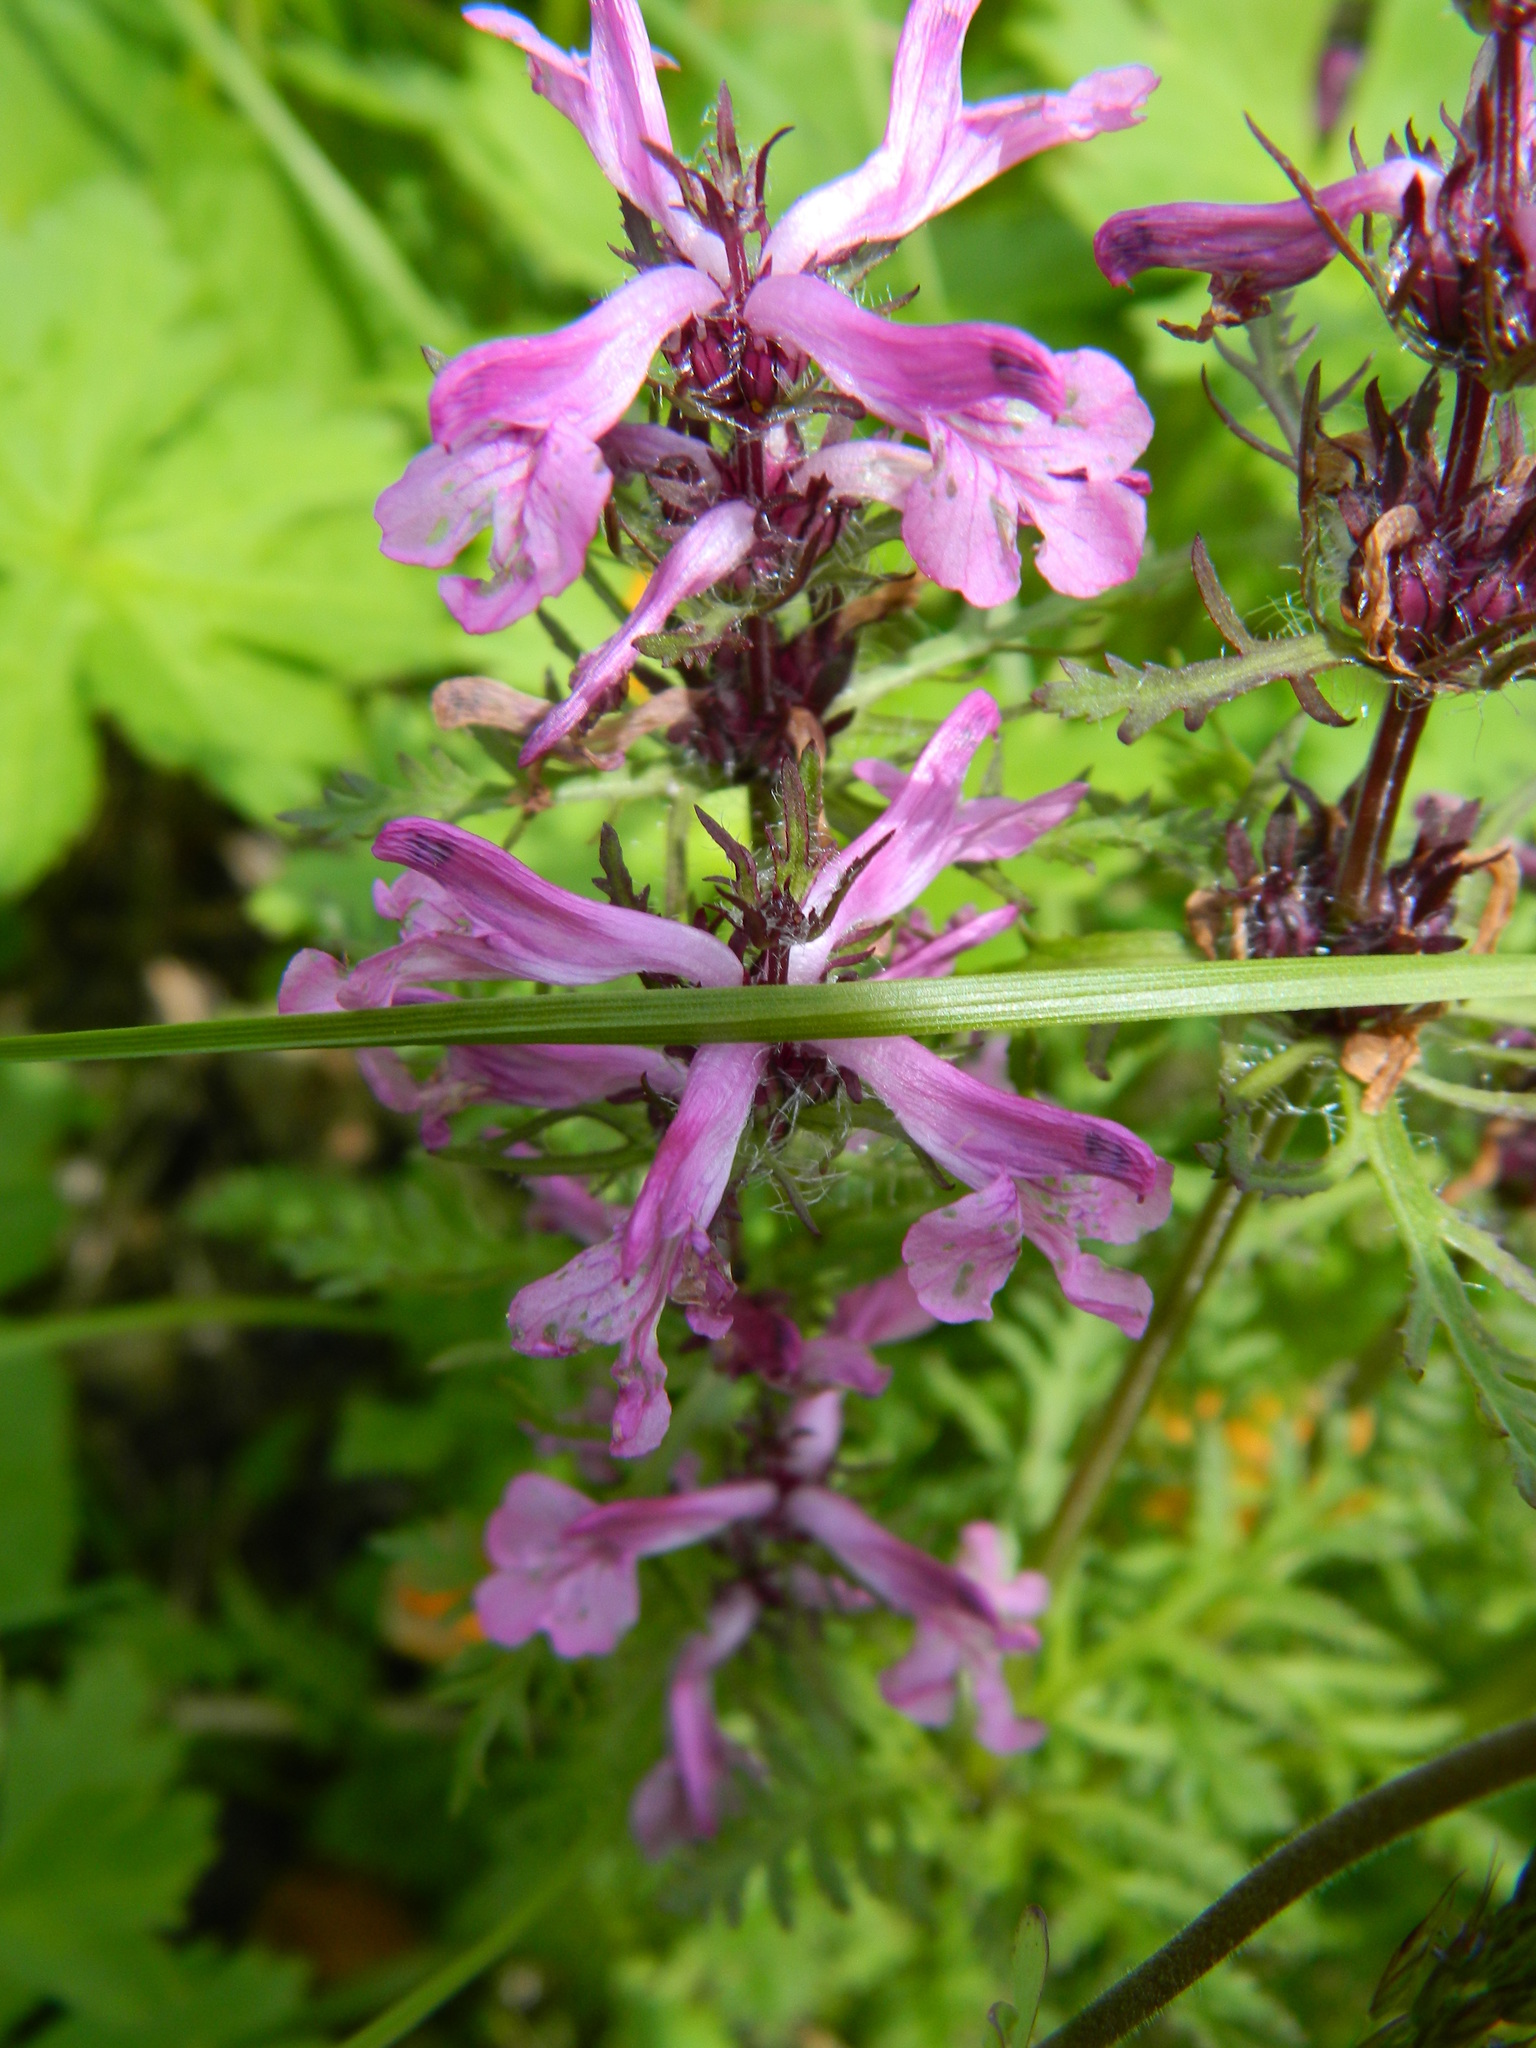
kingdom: Plantae
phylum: Tracheophyta
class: Magnoliopsida
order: Lamiales
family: Orobanchaceae
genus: Pedicularis
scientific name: Pedicularis anthemifolia
